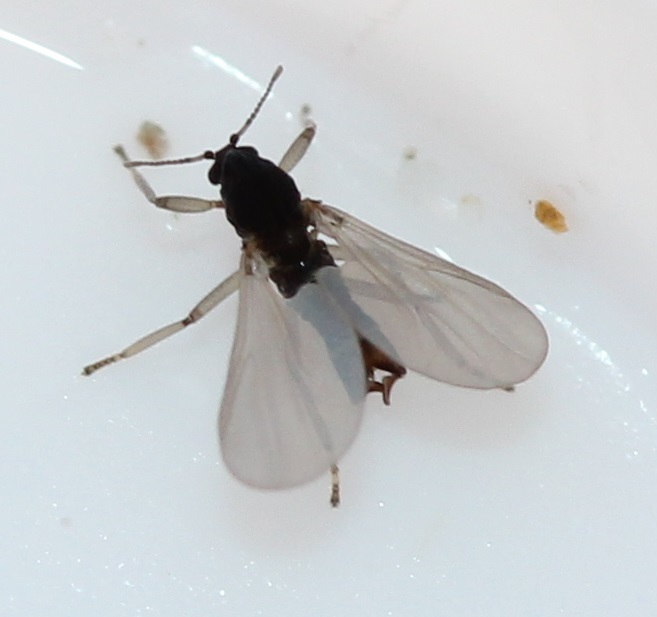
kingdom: Animalia
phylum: Arthropoda
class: Insecta
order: Diptera
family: Chironomidae
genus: Clunio
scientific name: Clunio californiensis
